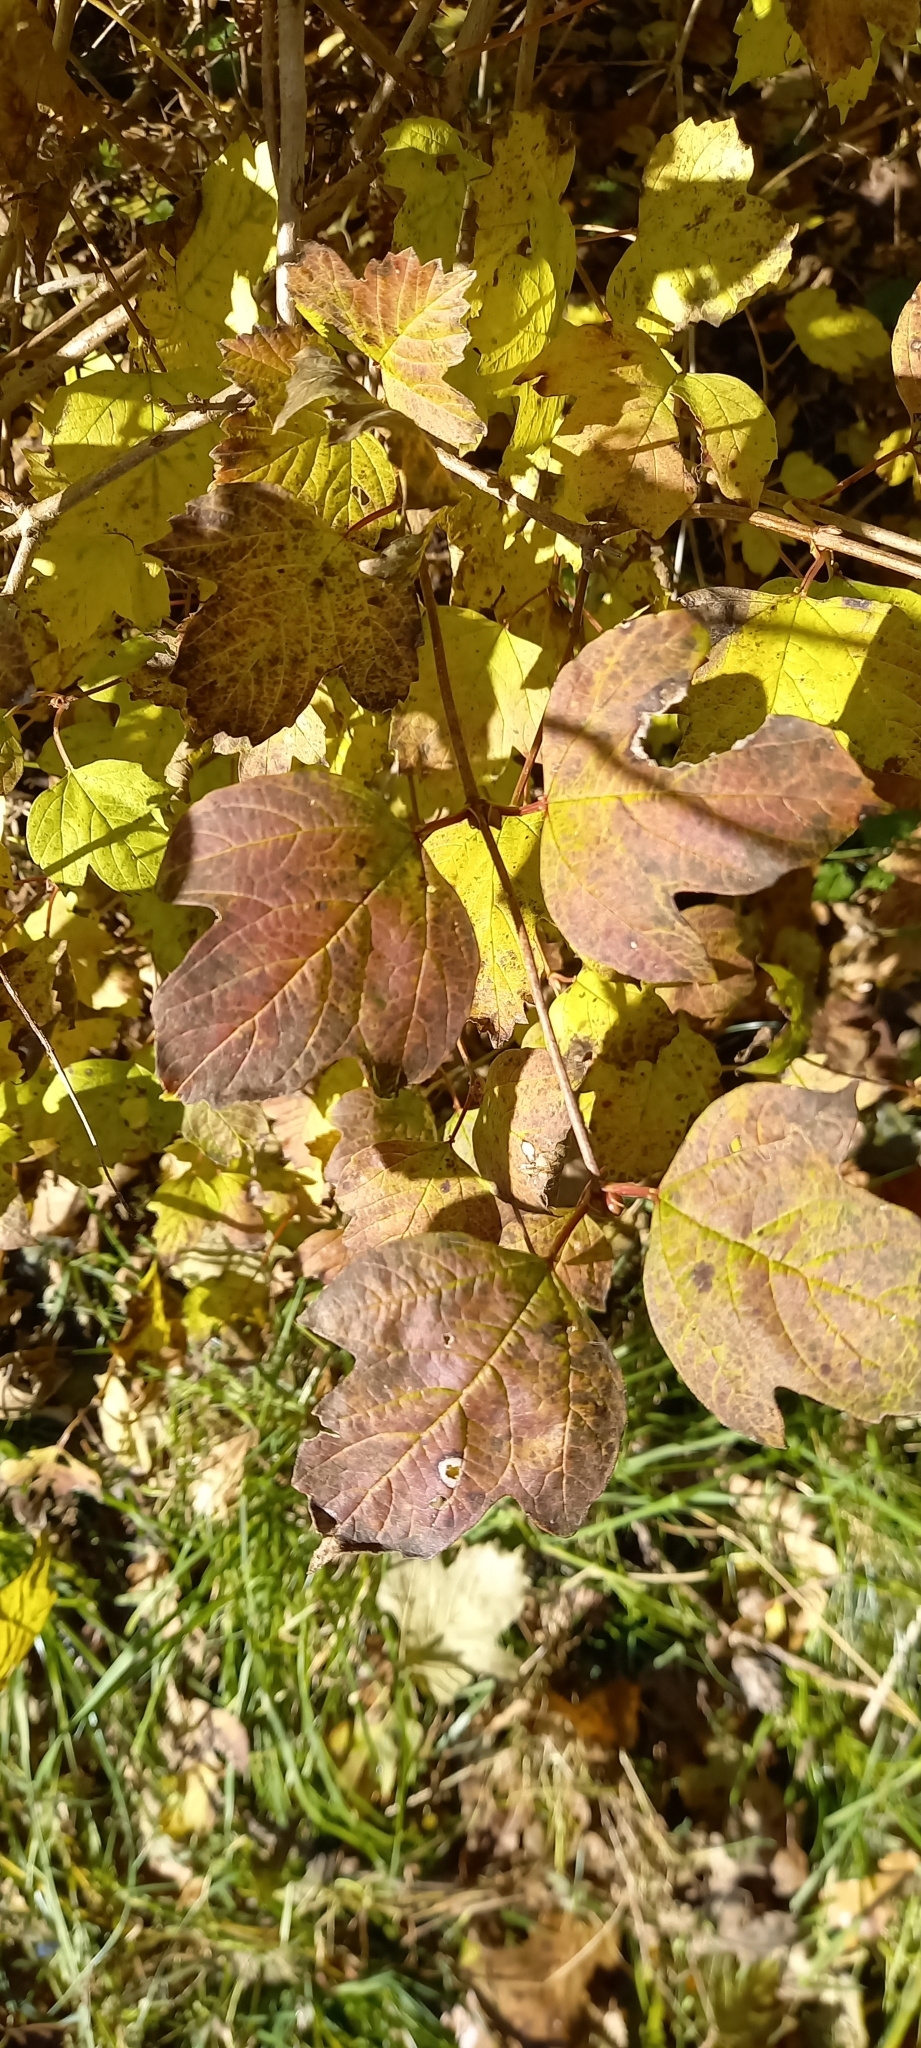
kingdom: Plantae
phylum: Tracheophyta
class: Magnoliopsida
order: Dipsacales
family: Viburnaceae
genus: Viburnum
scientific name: Viburnum opulus
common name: Guelder-rose
